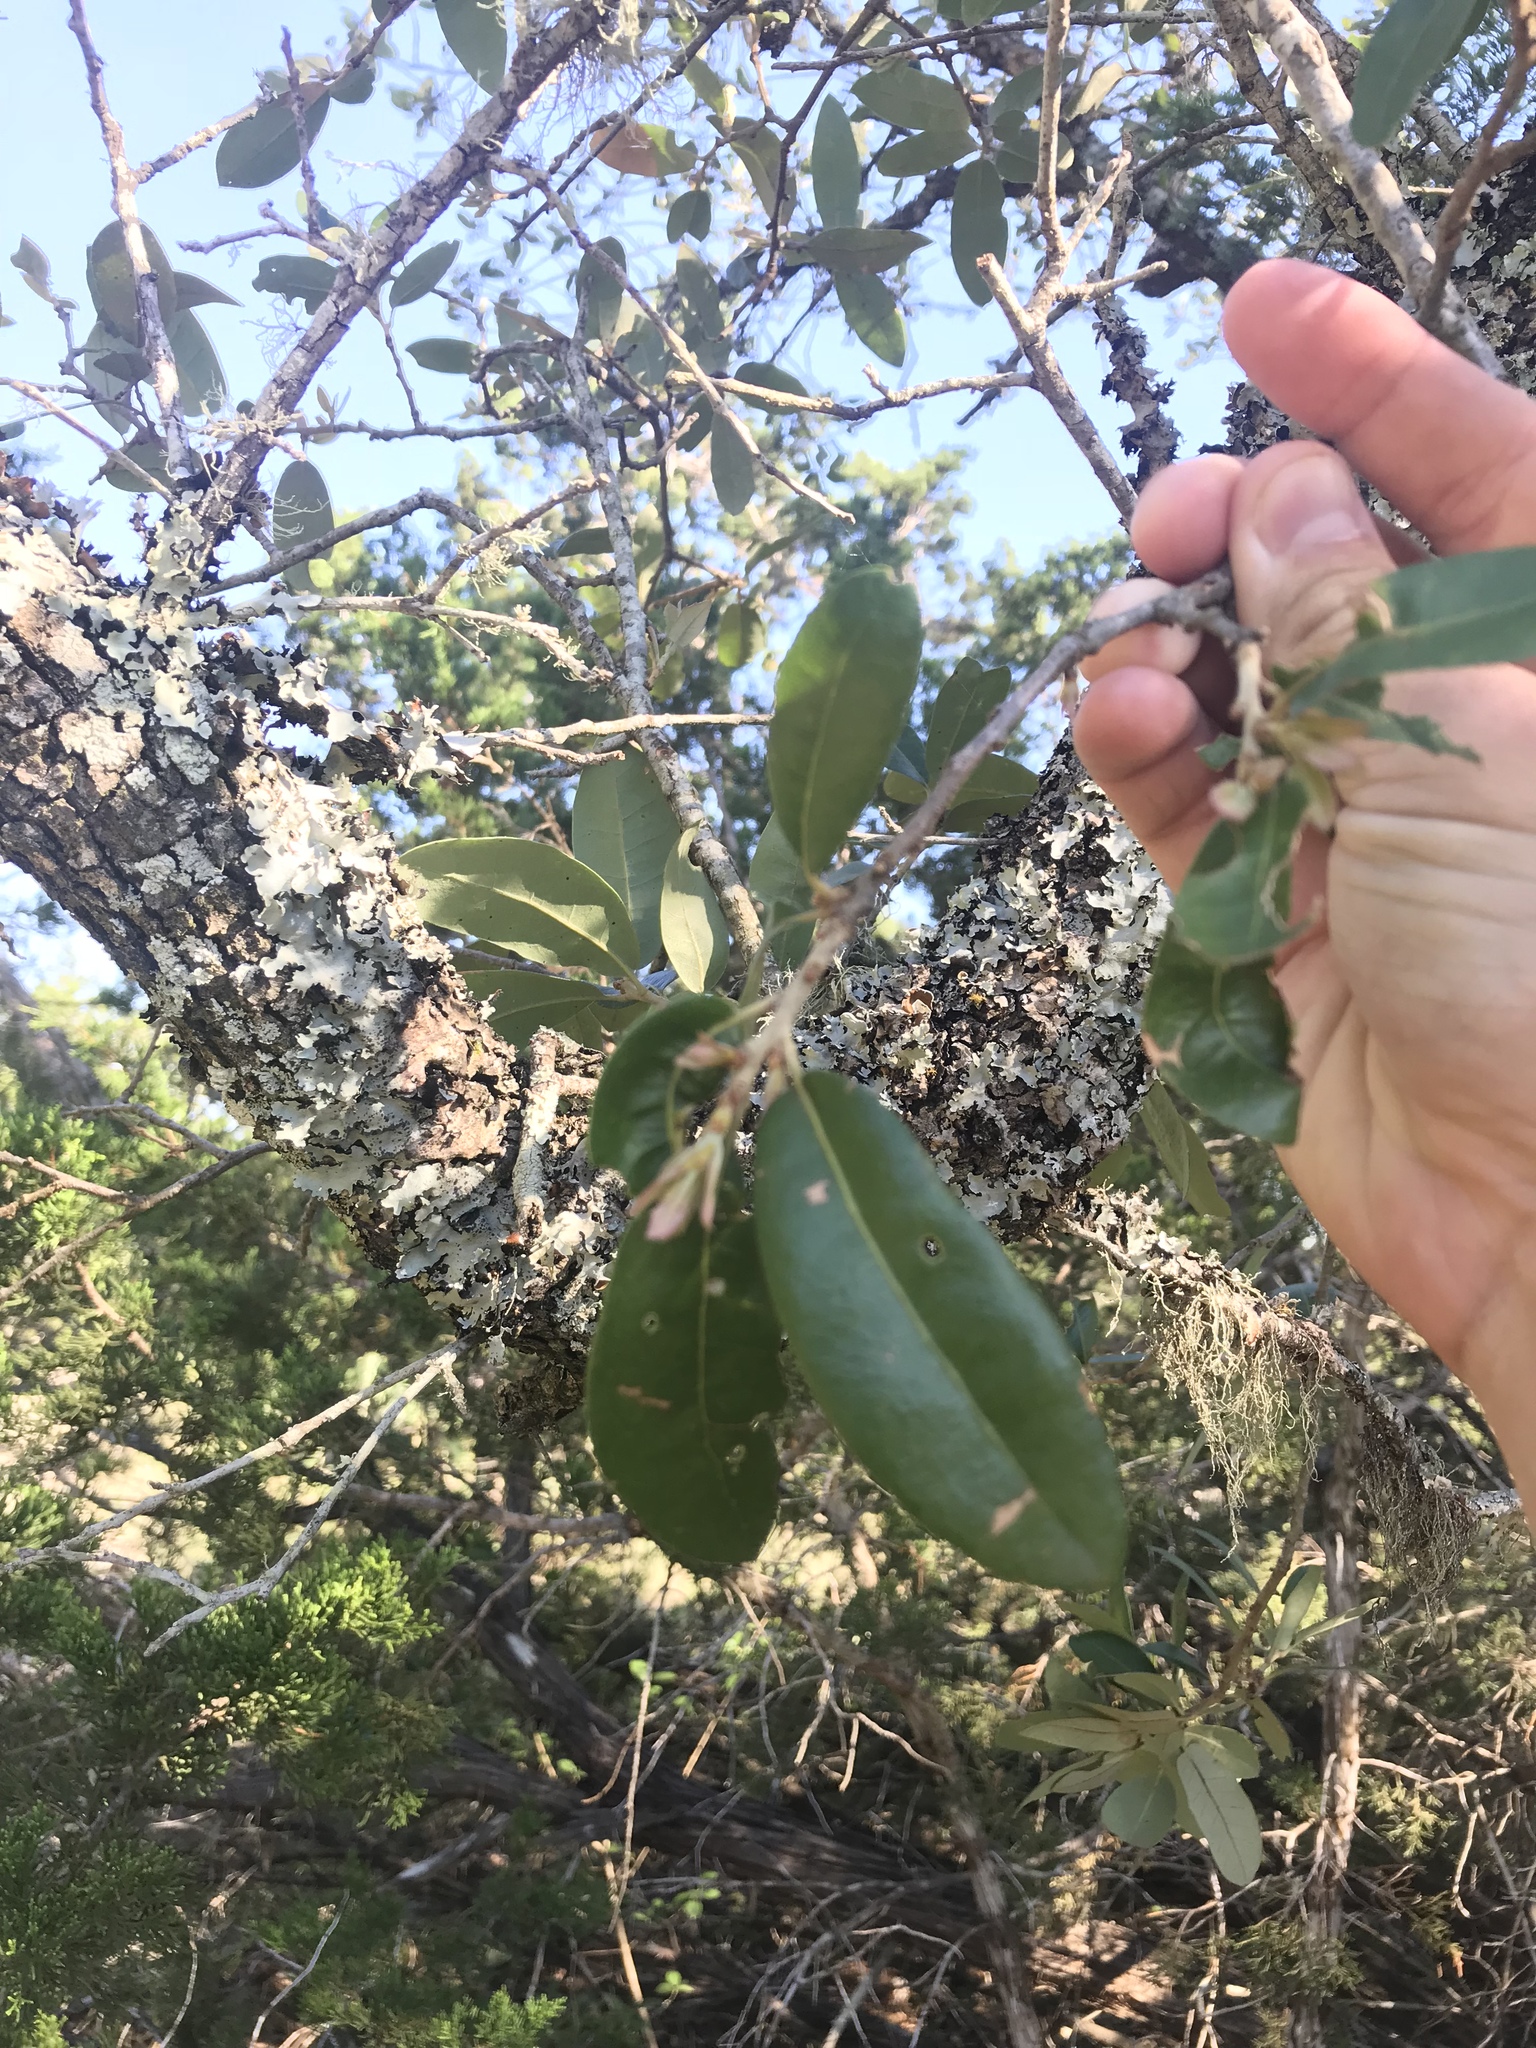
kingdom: Plantae
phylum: Tracheophyta
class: Magnoliopsida
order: Fagales
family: Fagaceae
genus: Quercus
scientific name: Quercus fusiformis
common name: Texas live oak
